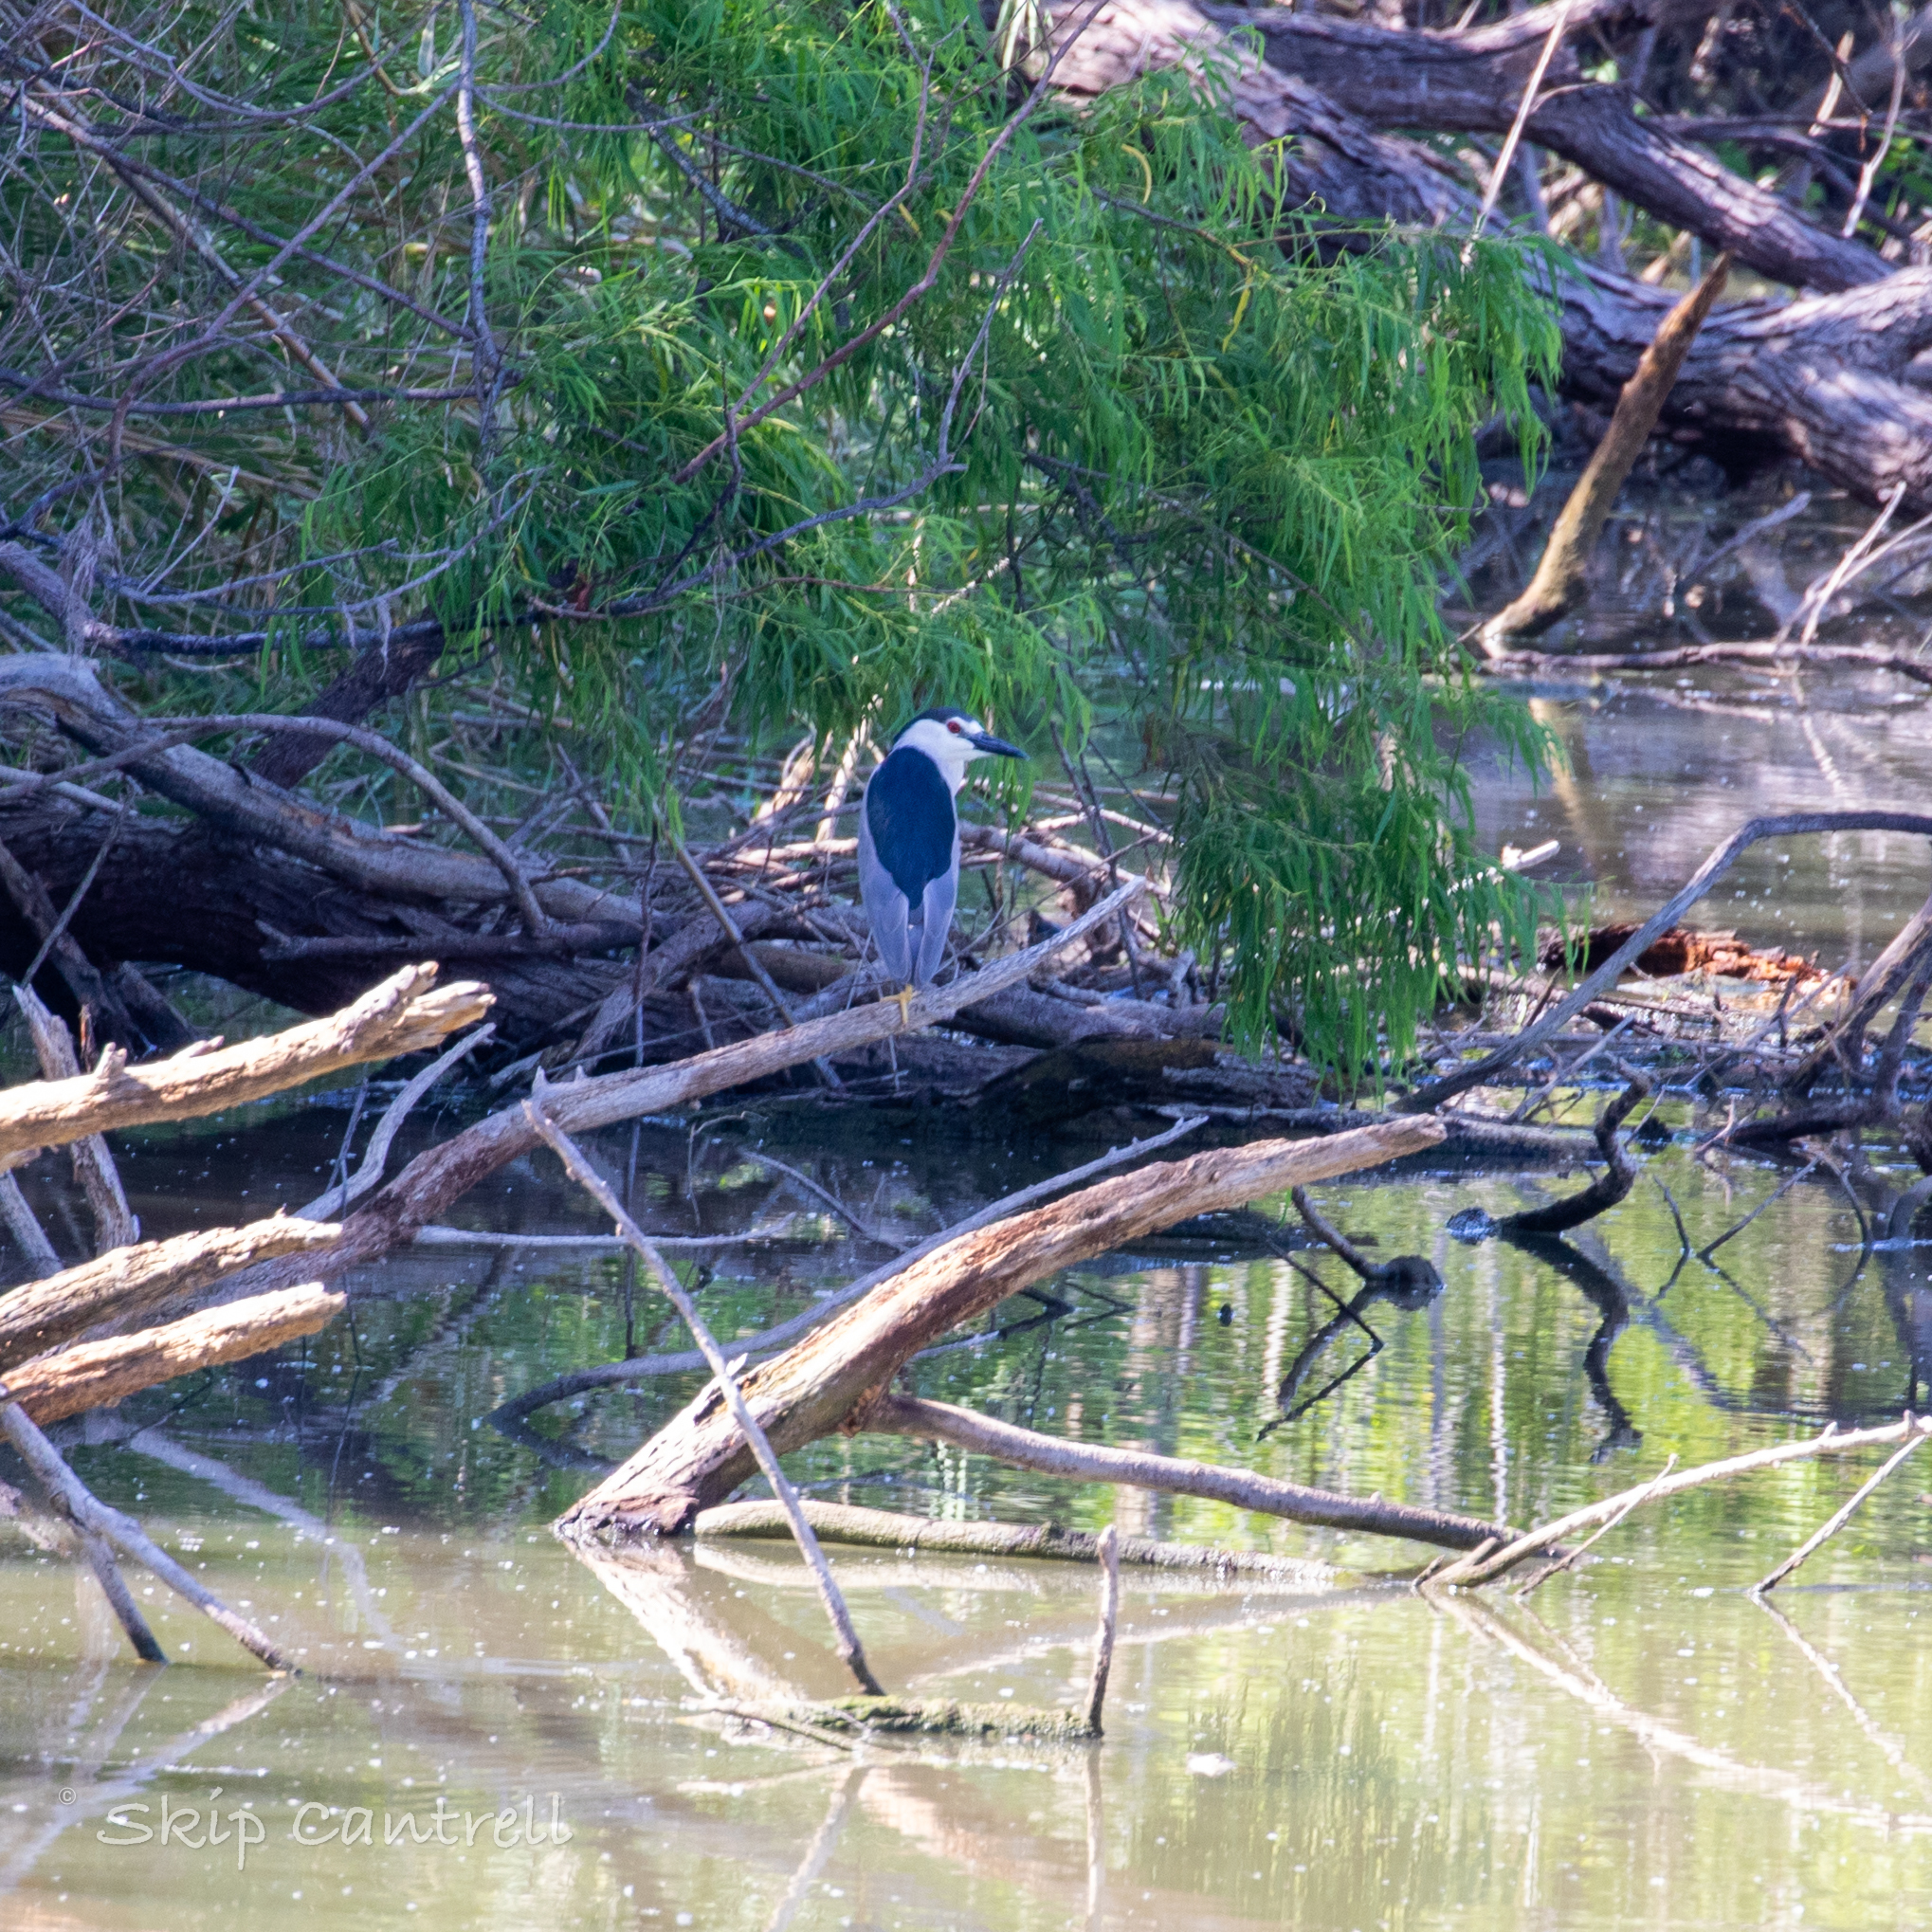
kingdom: Animalia
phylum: Chordata
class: Aves
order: Pelecaniformes
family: Ardeidae
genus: Nycticorax
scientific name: Nycticorax nycticorax
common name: Black-crowned night heron
